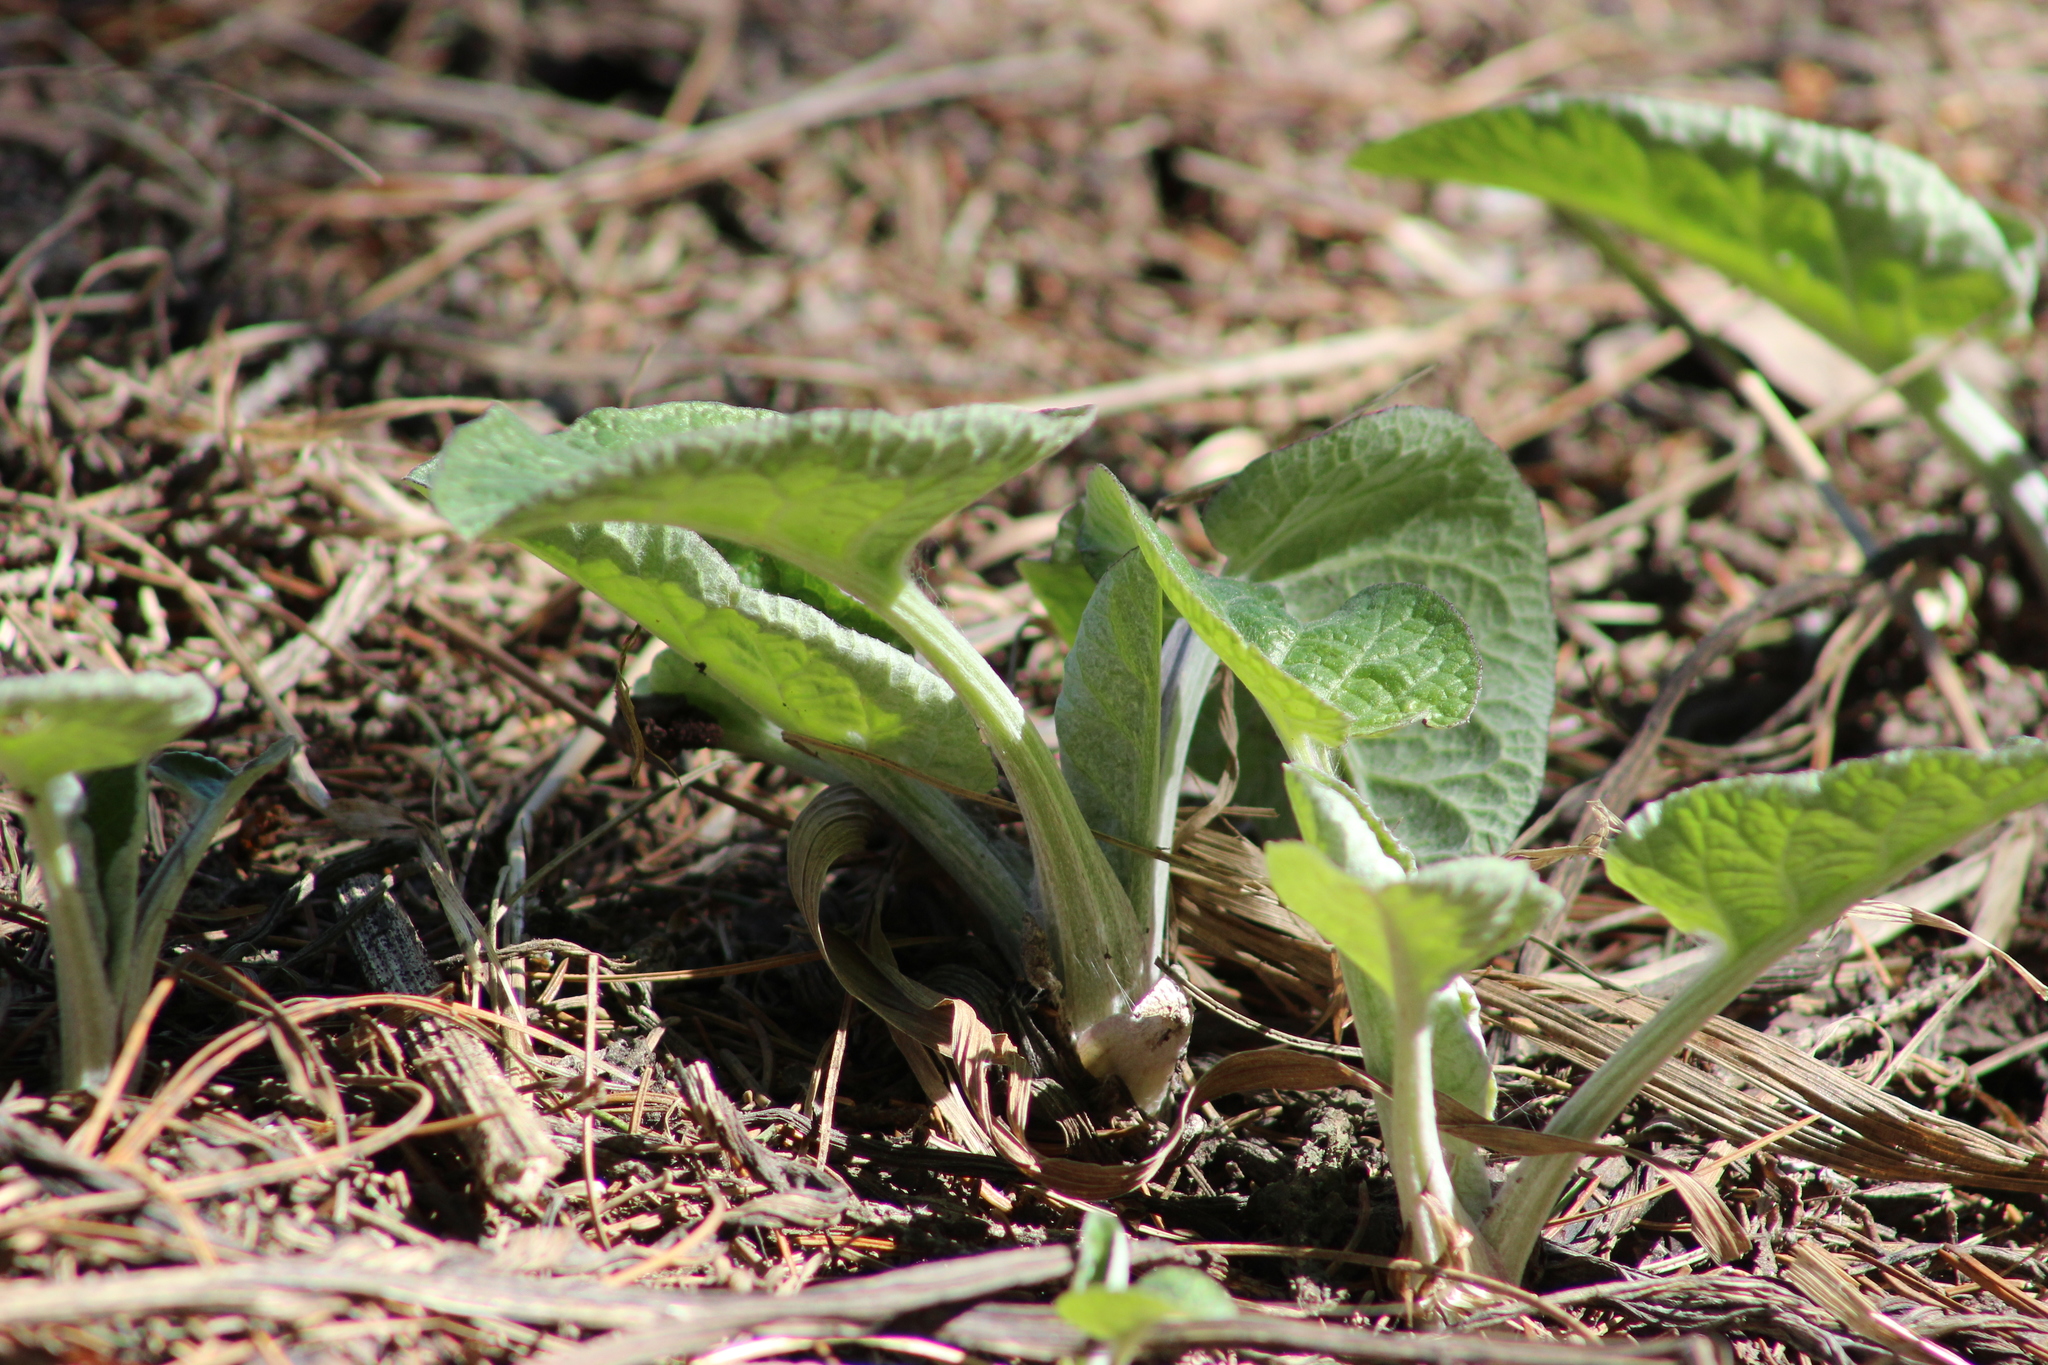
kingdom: Plantae
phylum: Tracheophyta
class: Magnoliopsida
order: Asterales
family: Asteraceae
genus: Arctium
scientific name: Arctium tomentosum
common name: Woolly burdock
